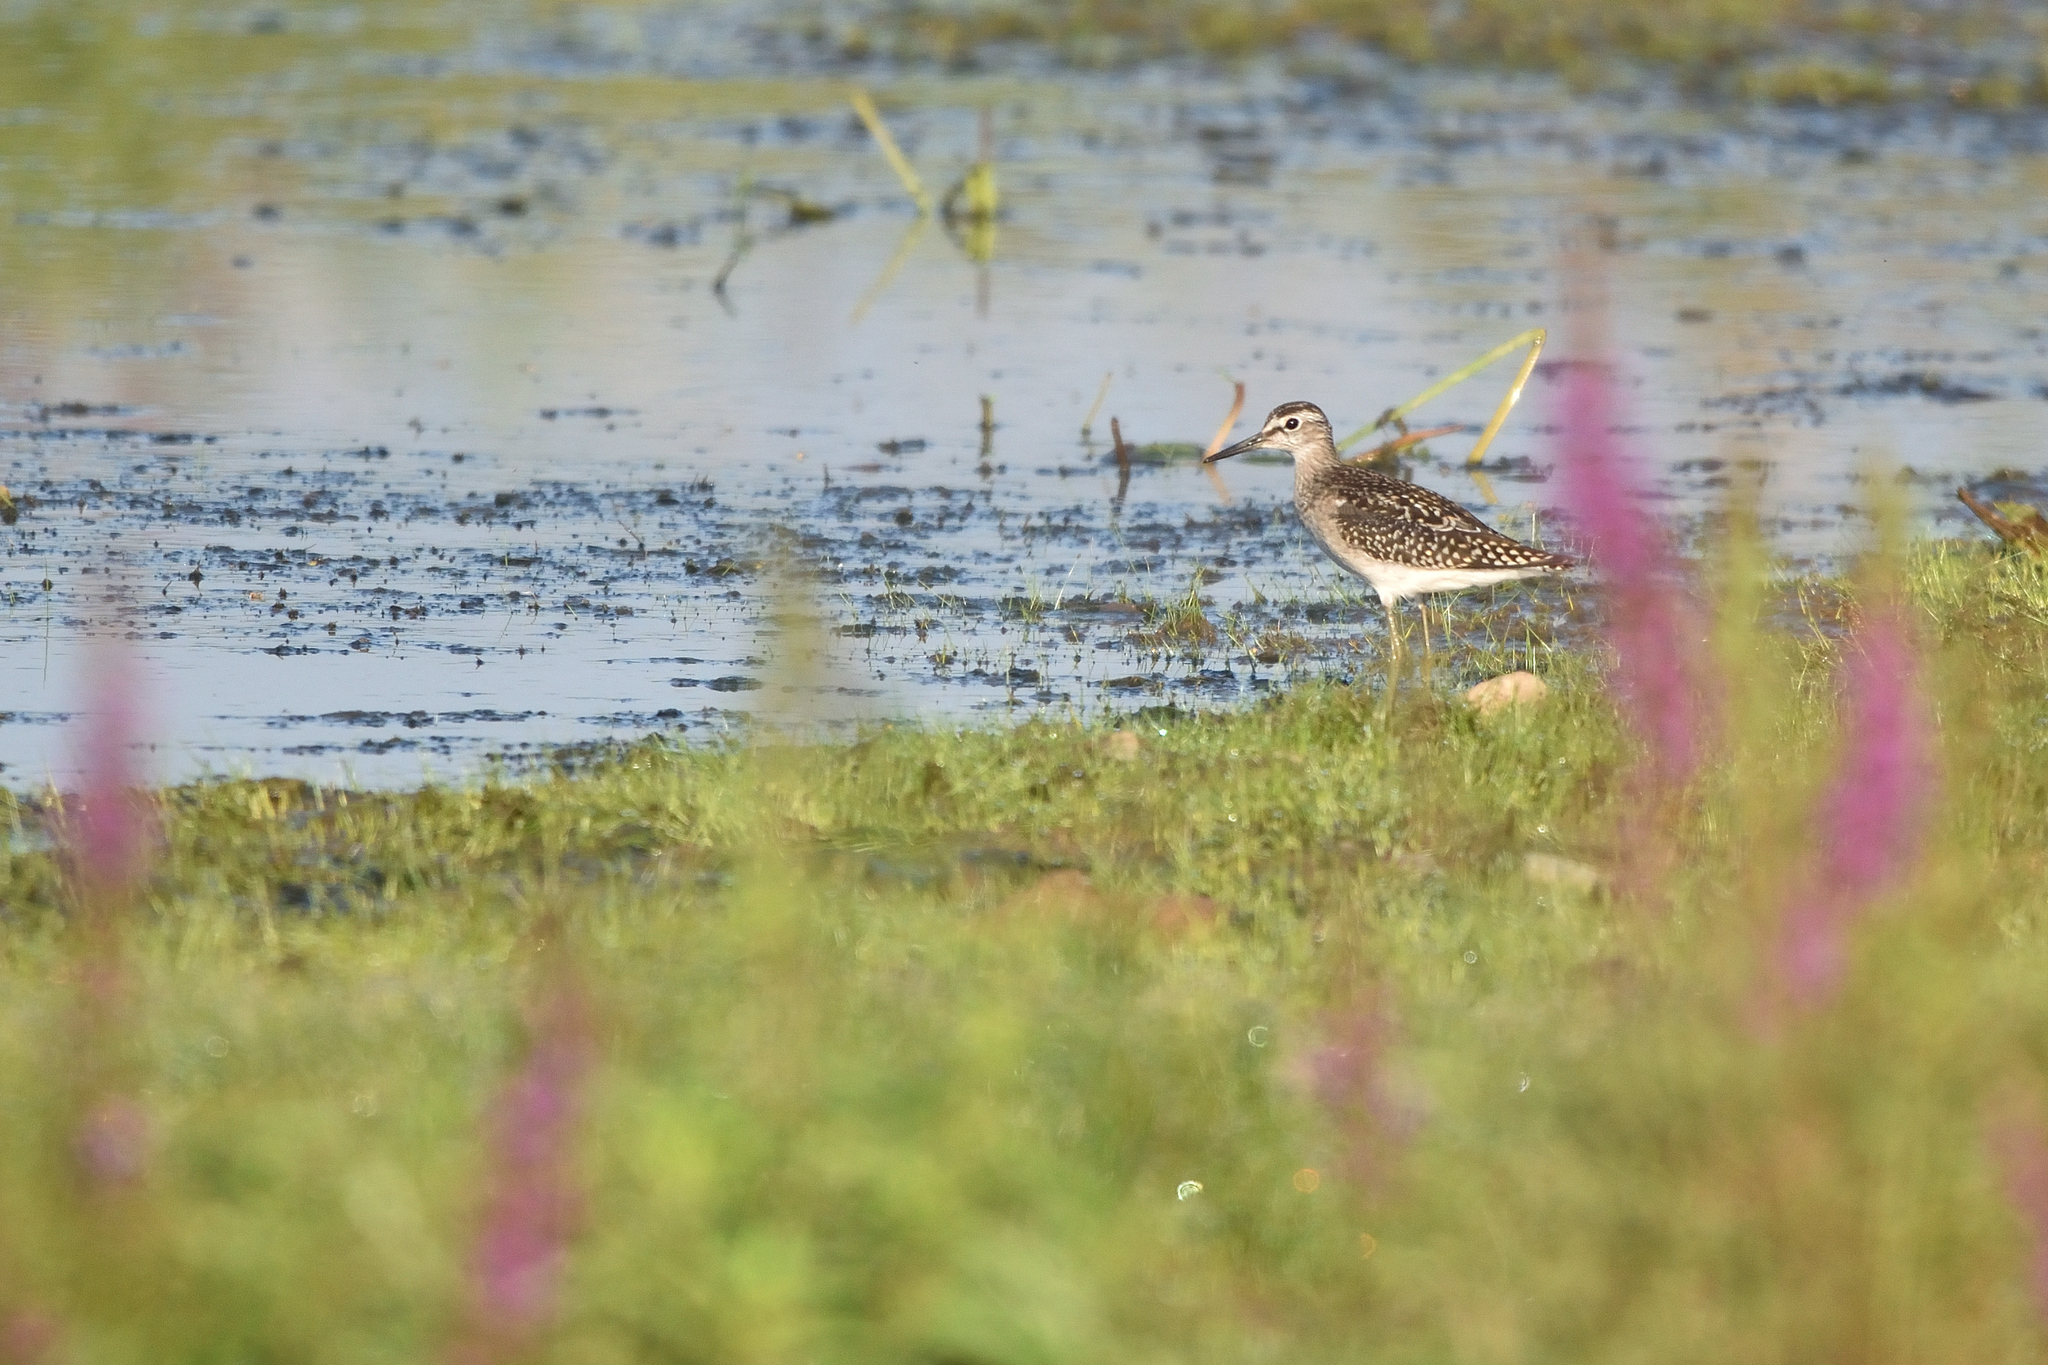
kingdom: Animalia
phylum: Chordata
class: Aves
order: Charadriiformes
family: Scolopacidae
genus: Tringa
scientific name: Tringa glareola
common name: Wood sandpiper
